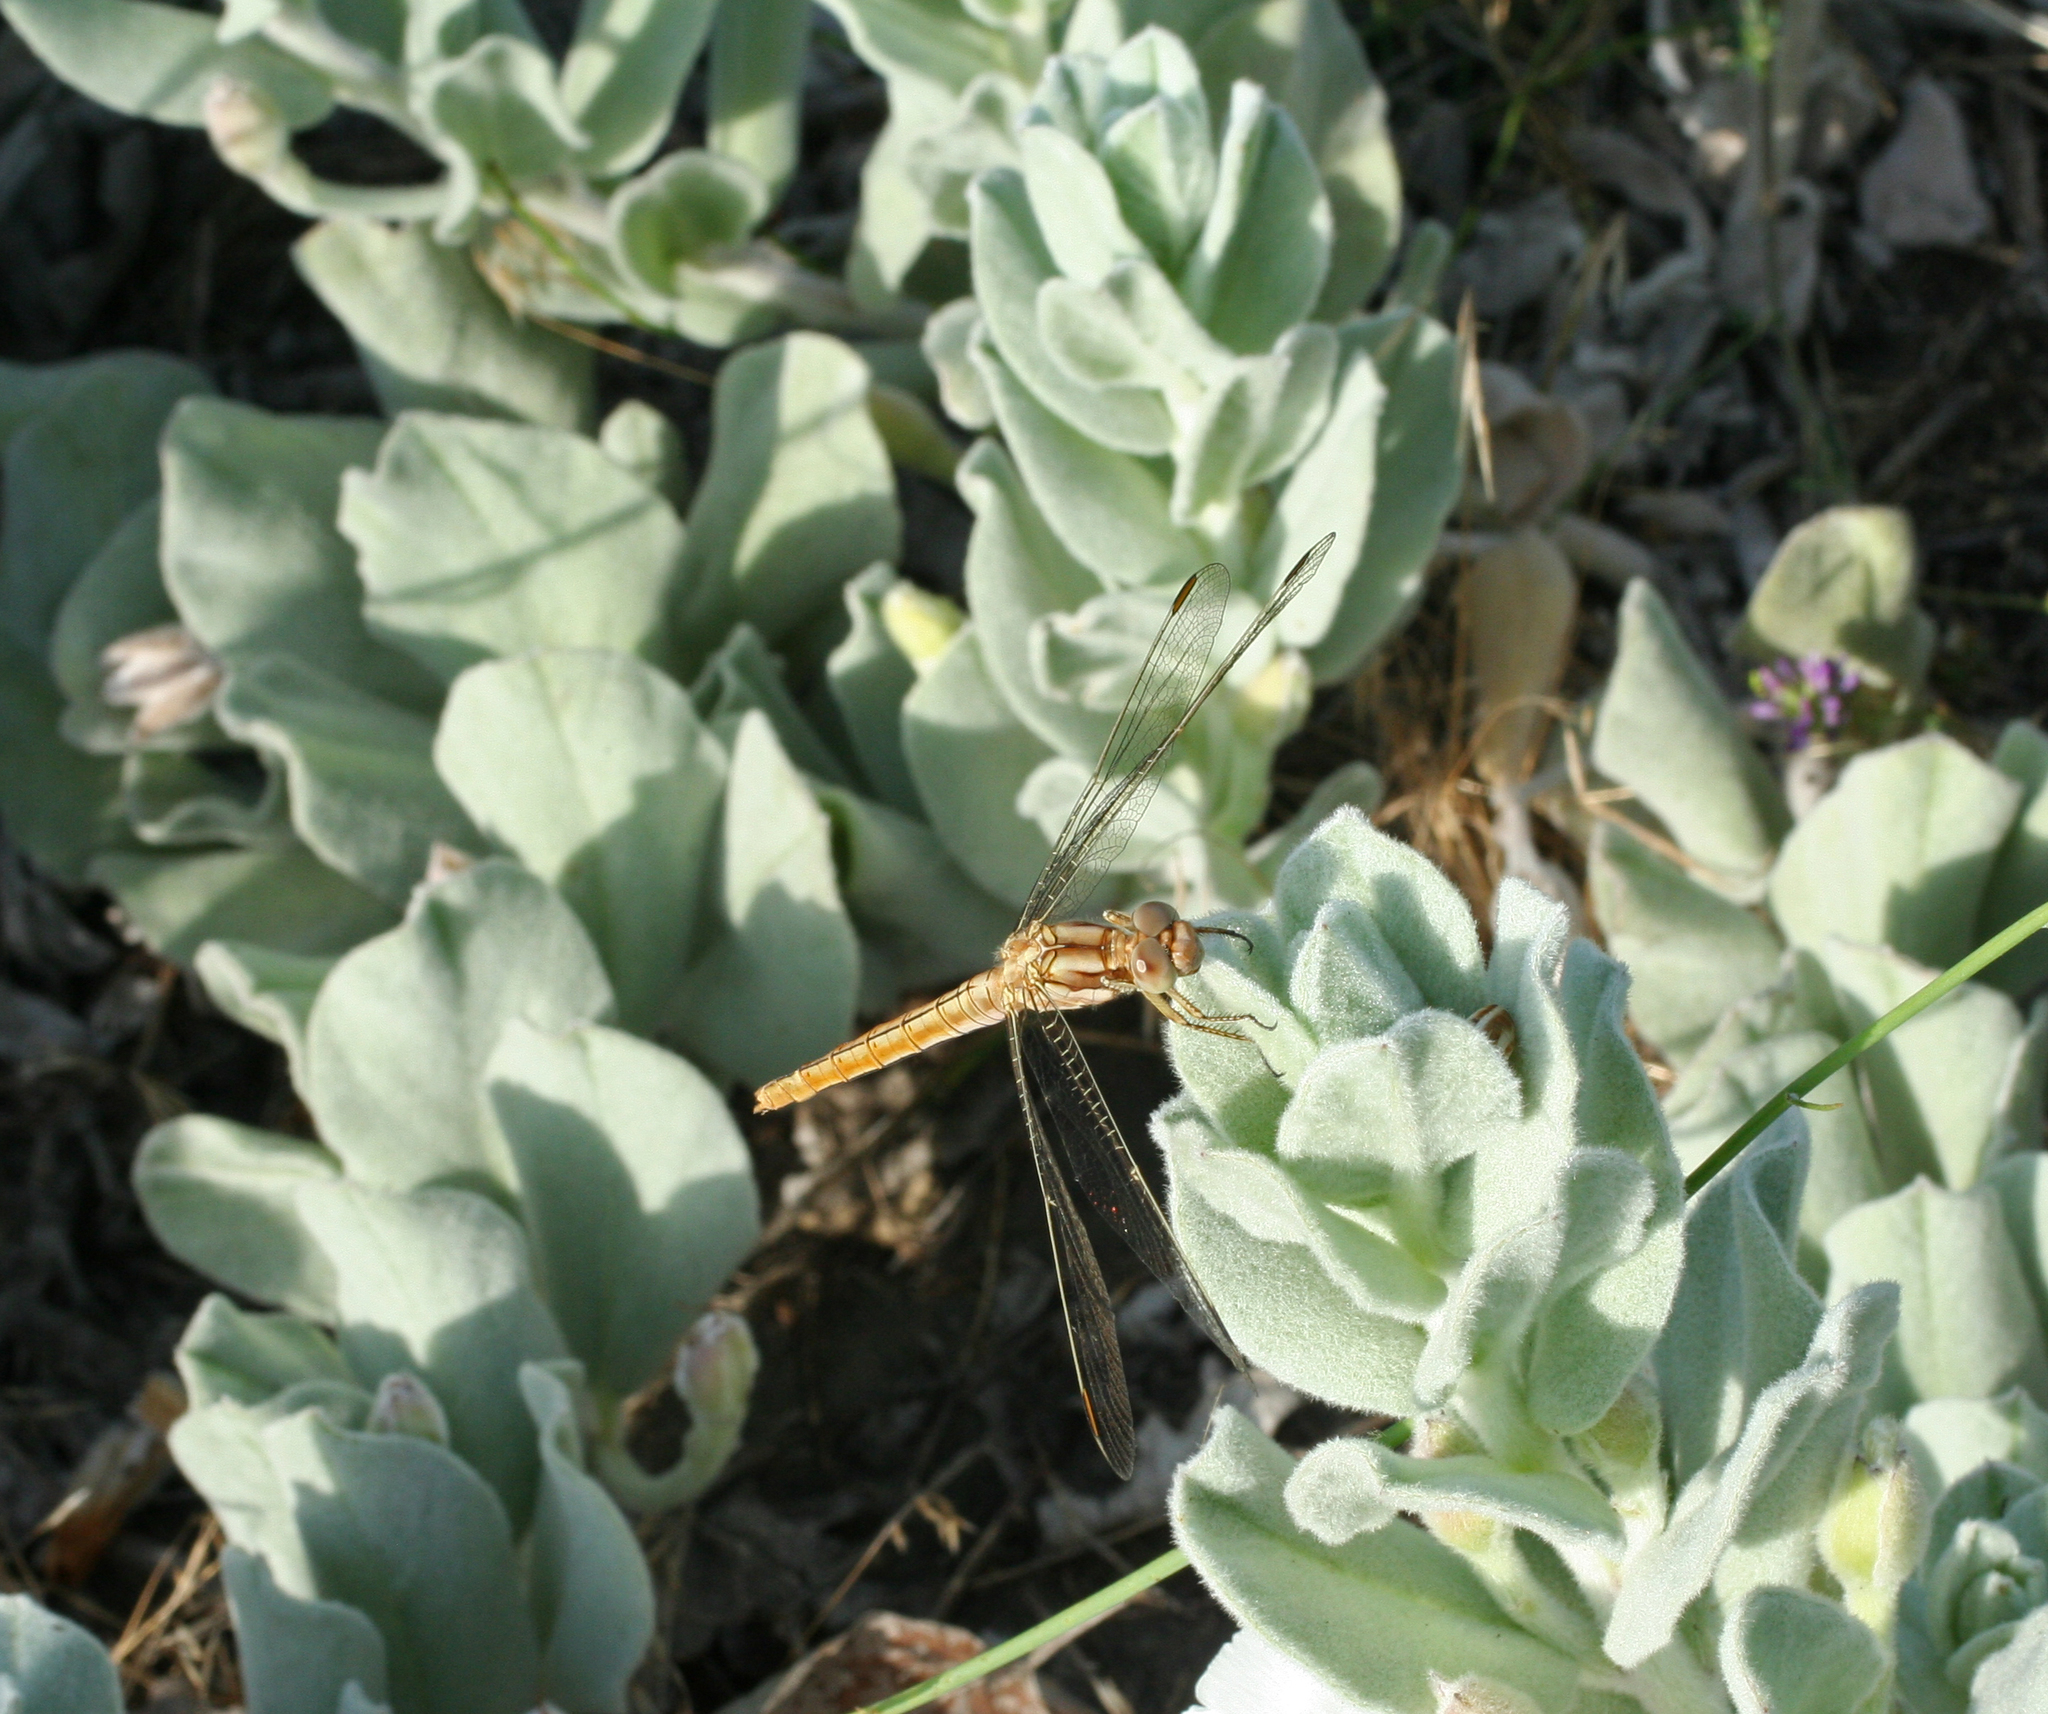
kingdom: Animalia
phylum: Arthropoda
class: Insecta
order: Odonata
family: Libellulidae
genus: Orthetrum
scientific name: Orthetrum brunneum
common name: Southern skimmer
